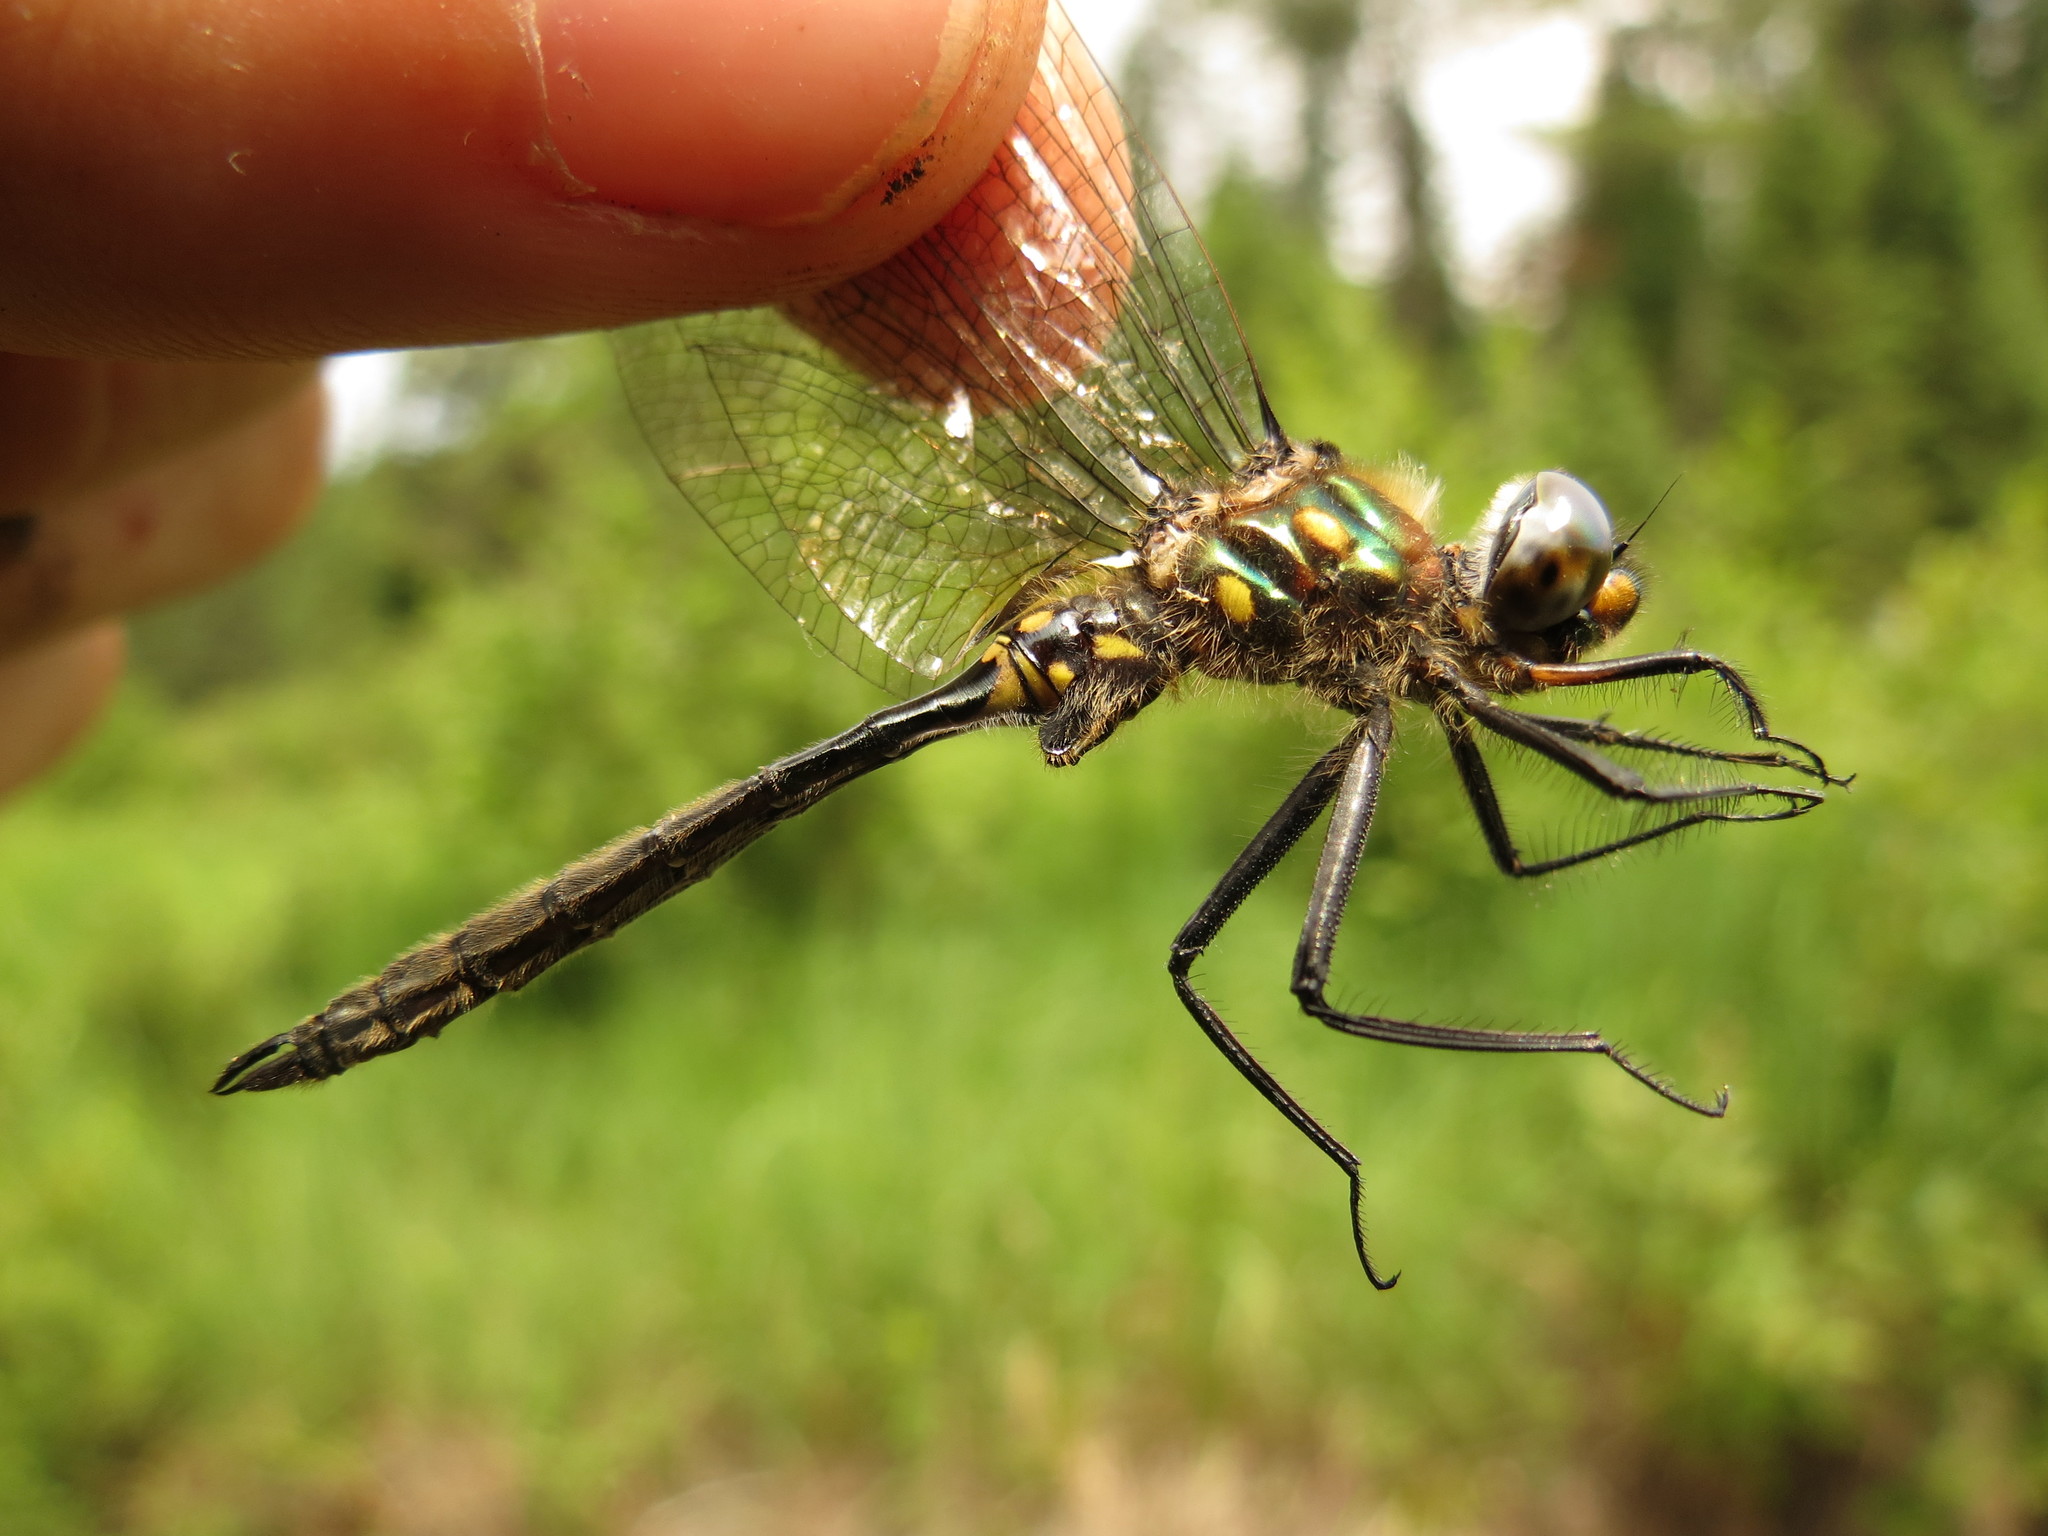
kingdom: Animalia
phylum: Arthropoda
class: Insecta
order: Odonata
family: Corduliidae
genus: Somatochlora
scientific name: Somatochlora minor
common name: Ocellated emerald
